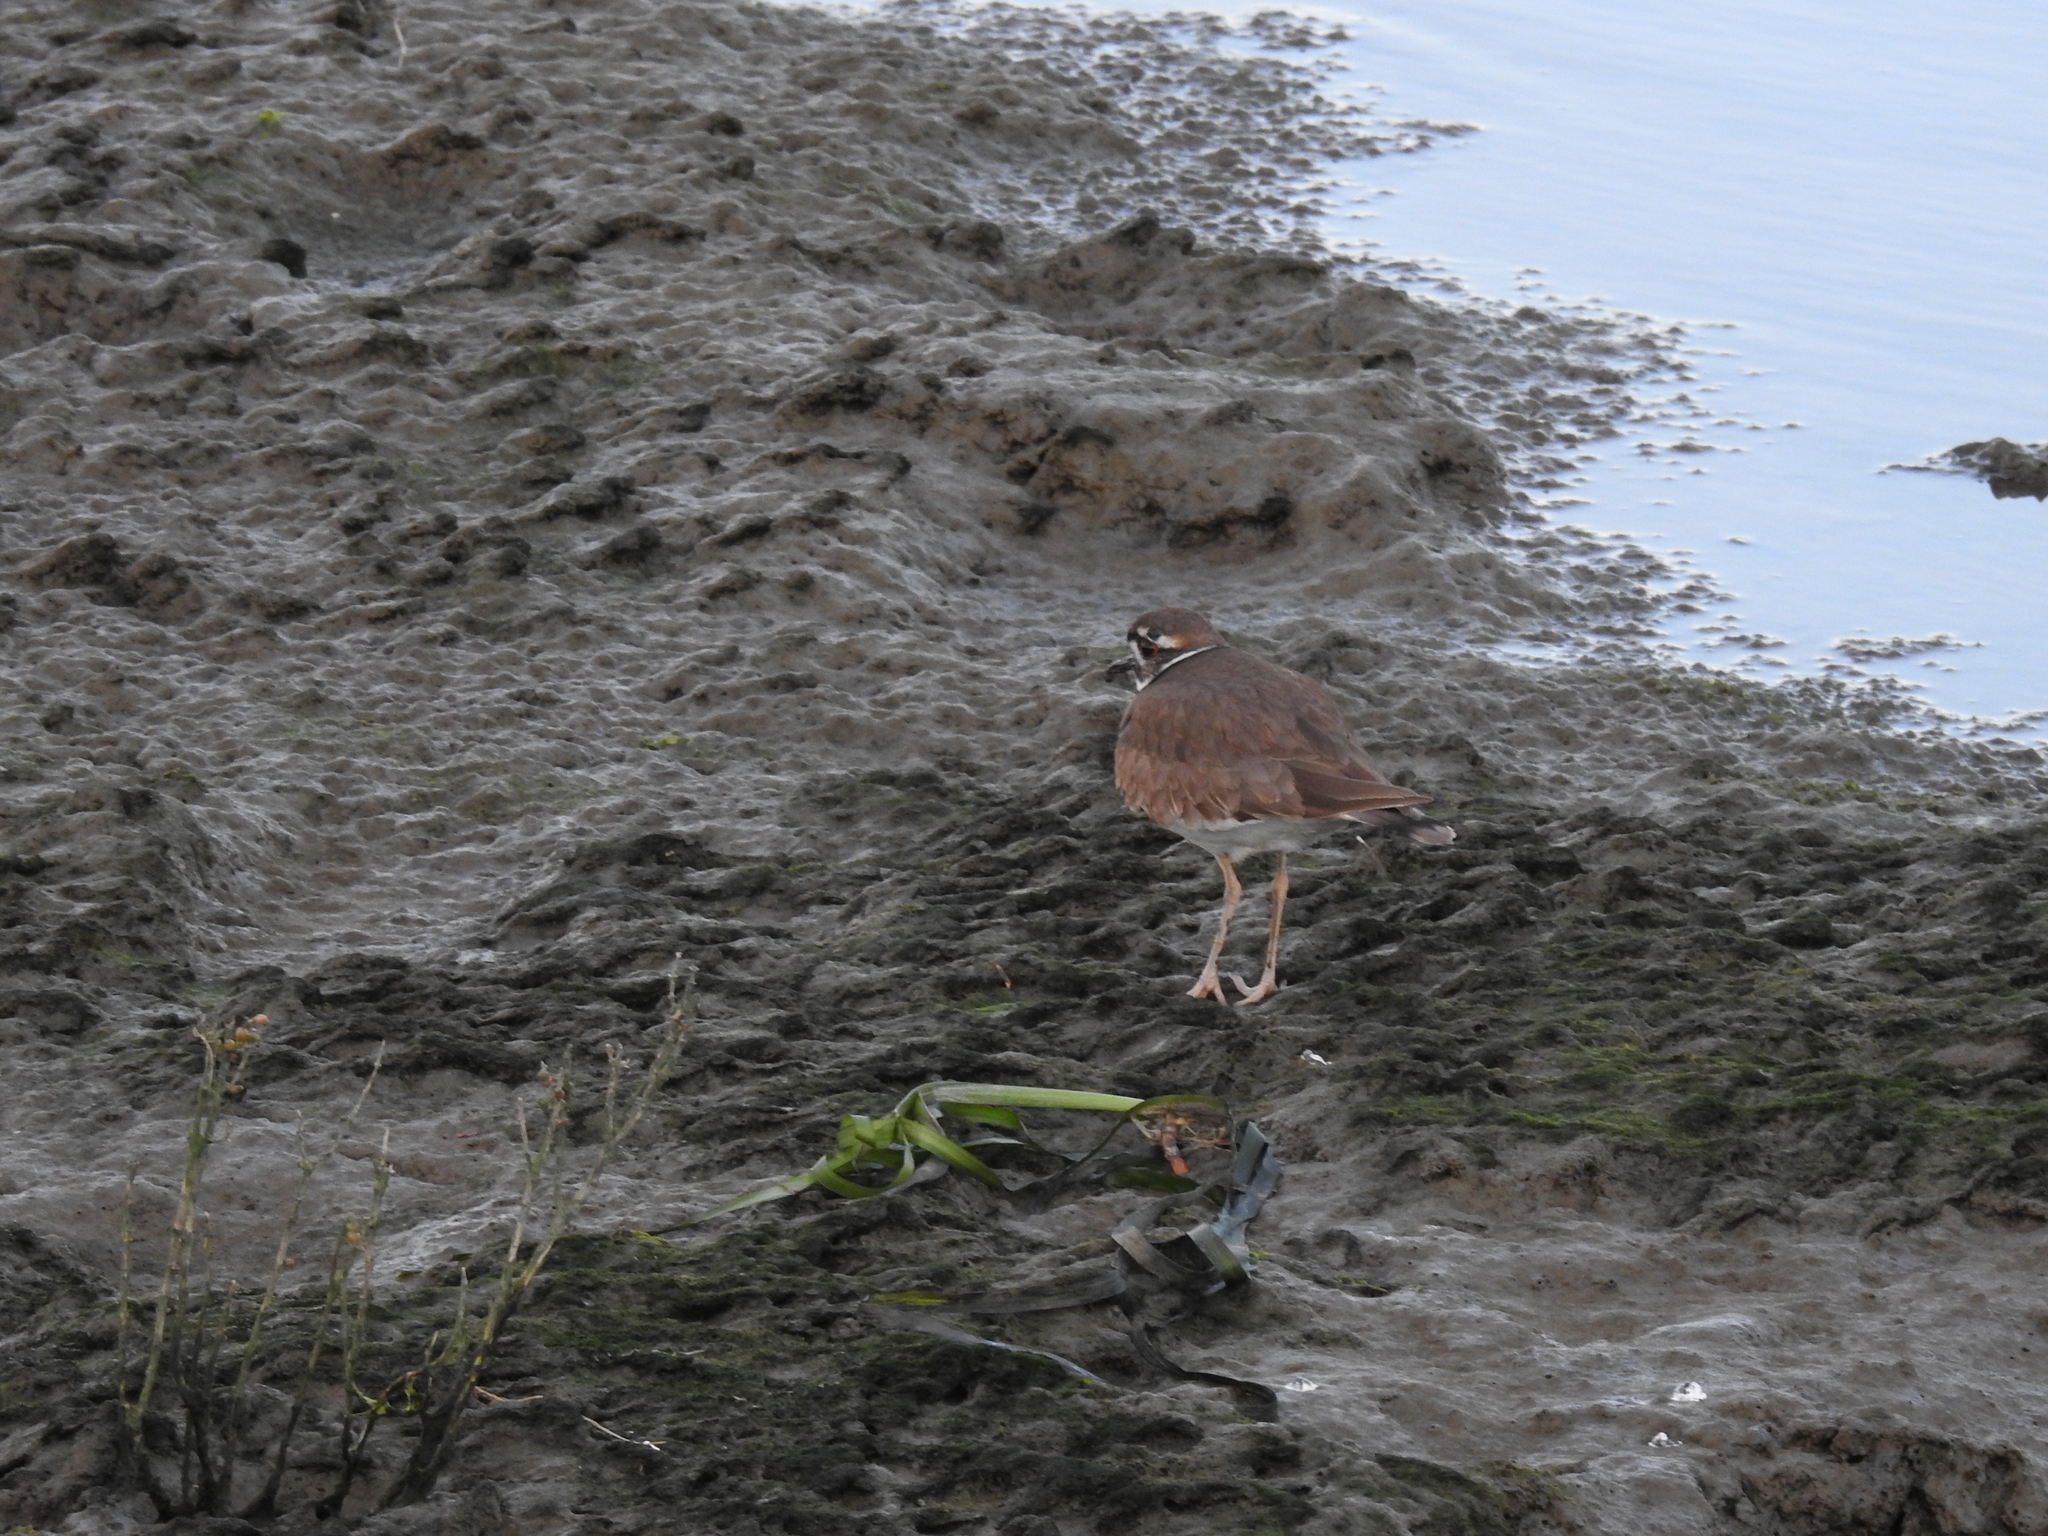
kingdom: Animalia
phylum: Chordata
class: Aves
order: Charadriiformes
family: Charadriidae
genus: Charadrius
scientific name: Charadrius vociferus
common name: Killdeer
